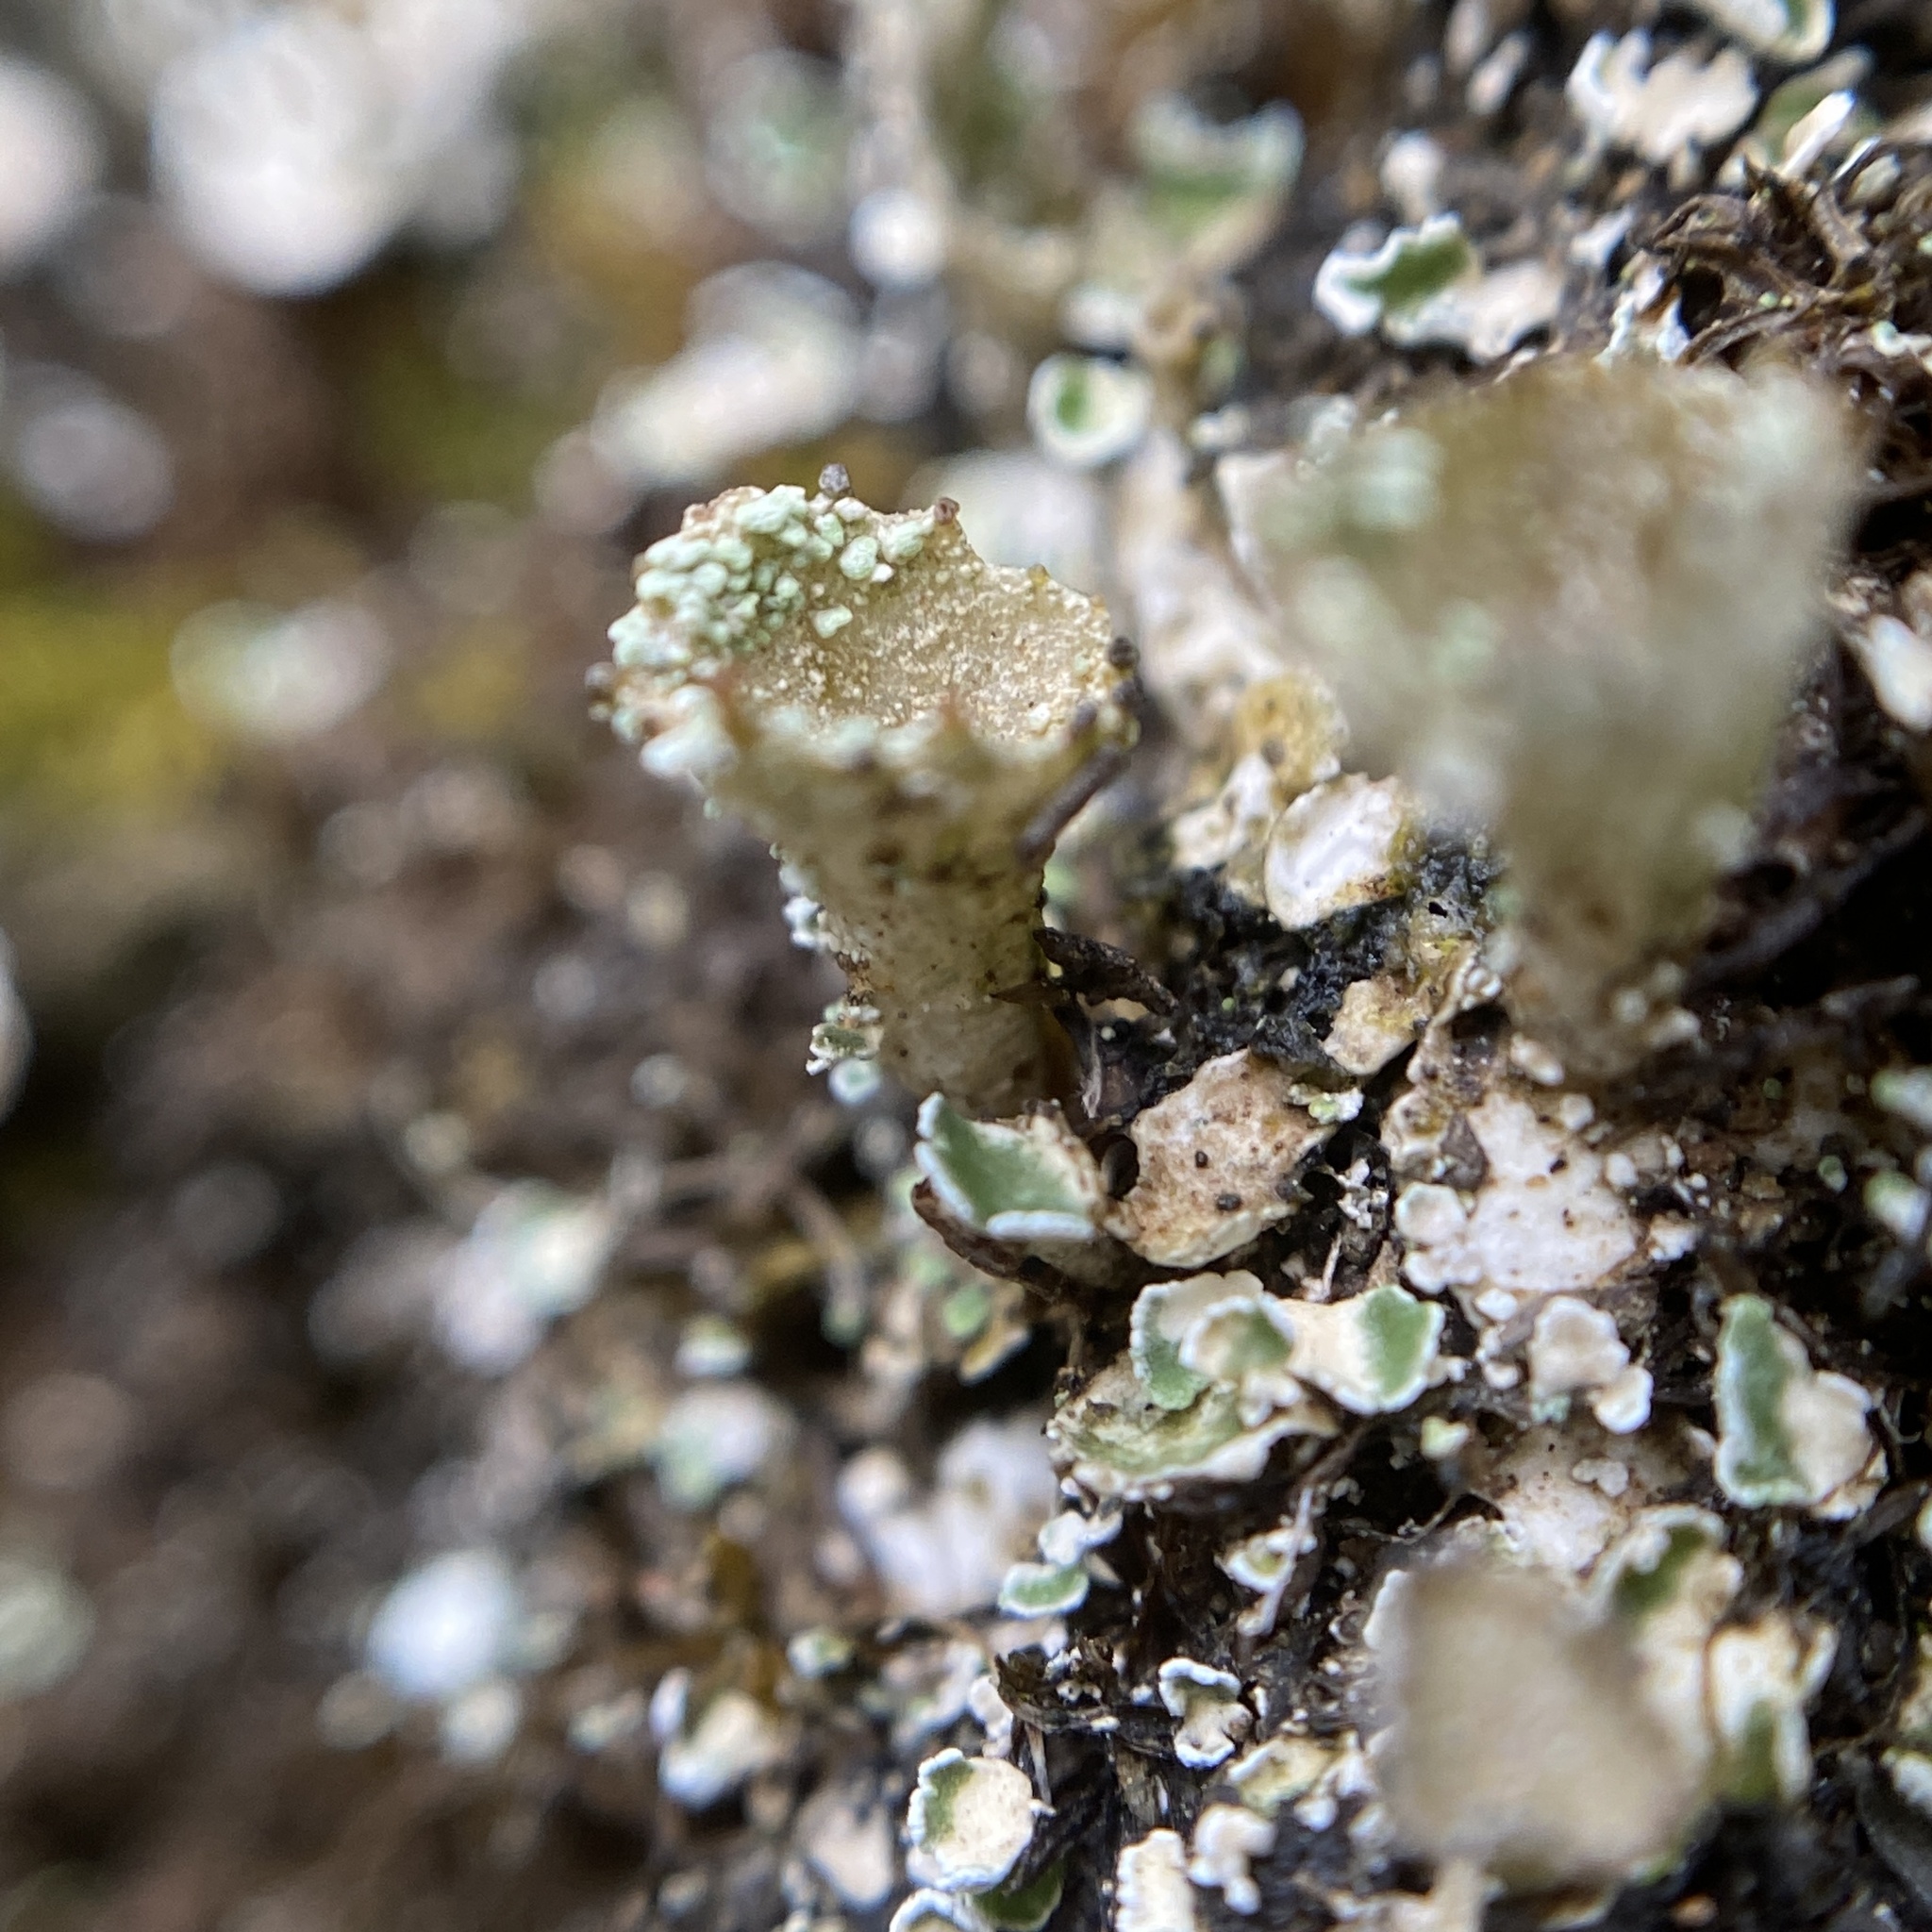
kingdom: Fungi
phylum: Ascomycota
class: Lecanoromycetes
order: Lecanorales
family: Cladoniaceae
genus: Cladonia
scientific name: Cladonia pyxidata
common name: Pebbled pixie cup
